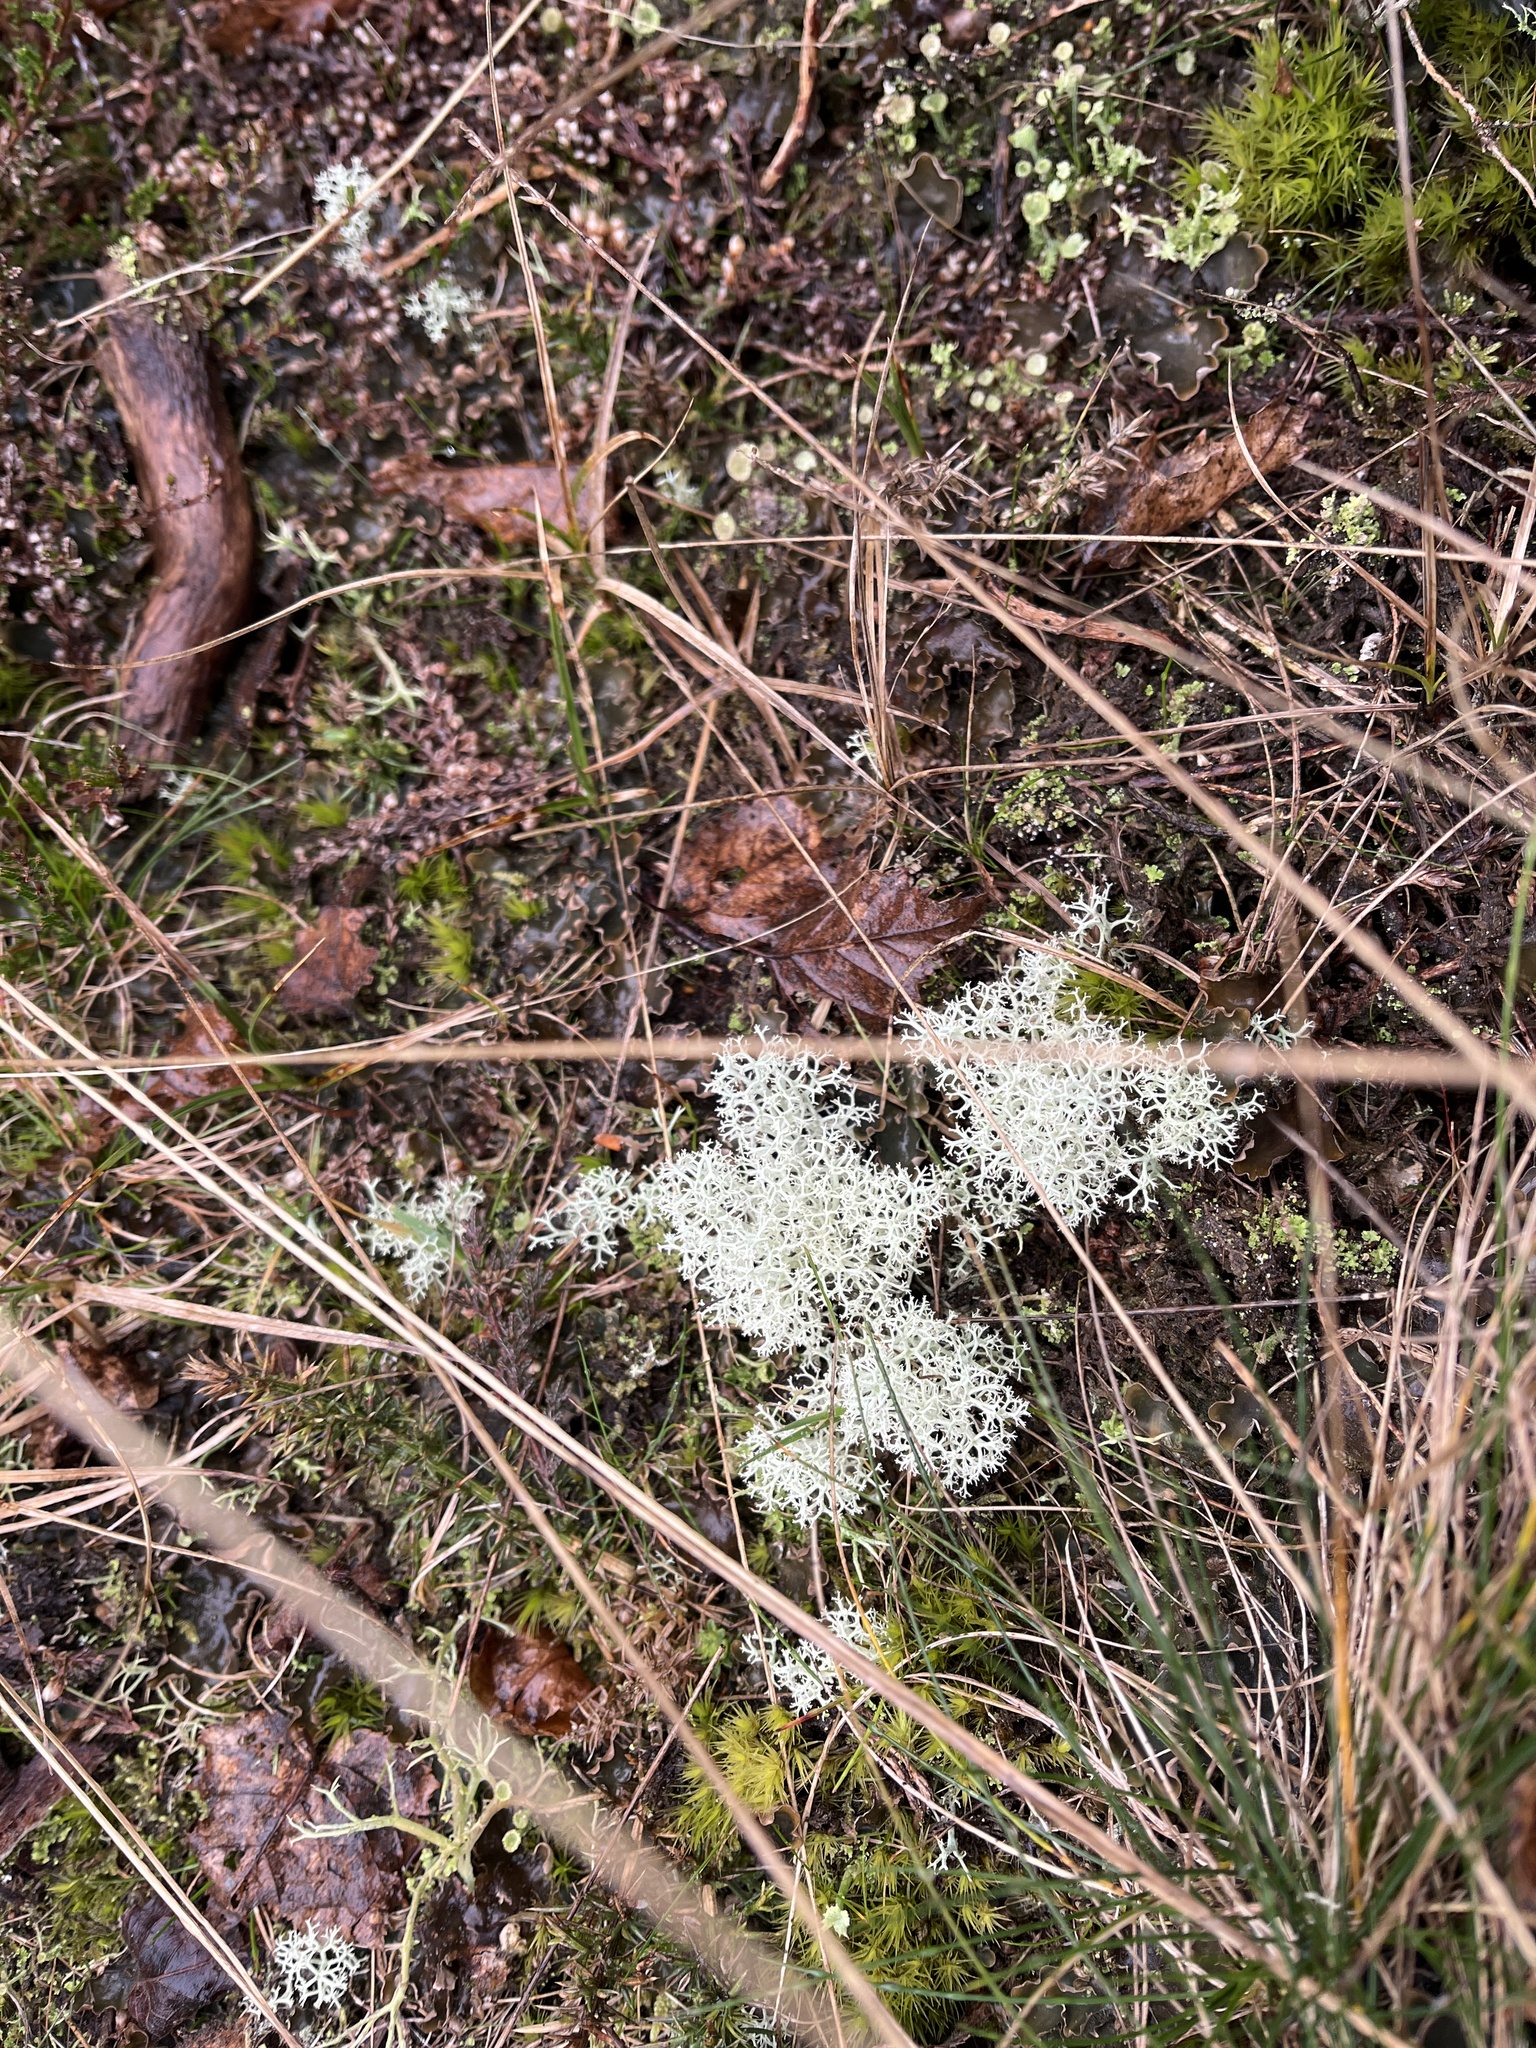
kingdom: Fungi
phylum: Ascomycota
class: Lecanoromycetes
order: Lecanorales
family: Cladoniaceae
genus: Cladonia
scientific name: Cladonia portentosa
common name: Reindeer lichen
